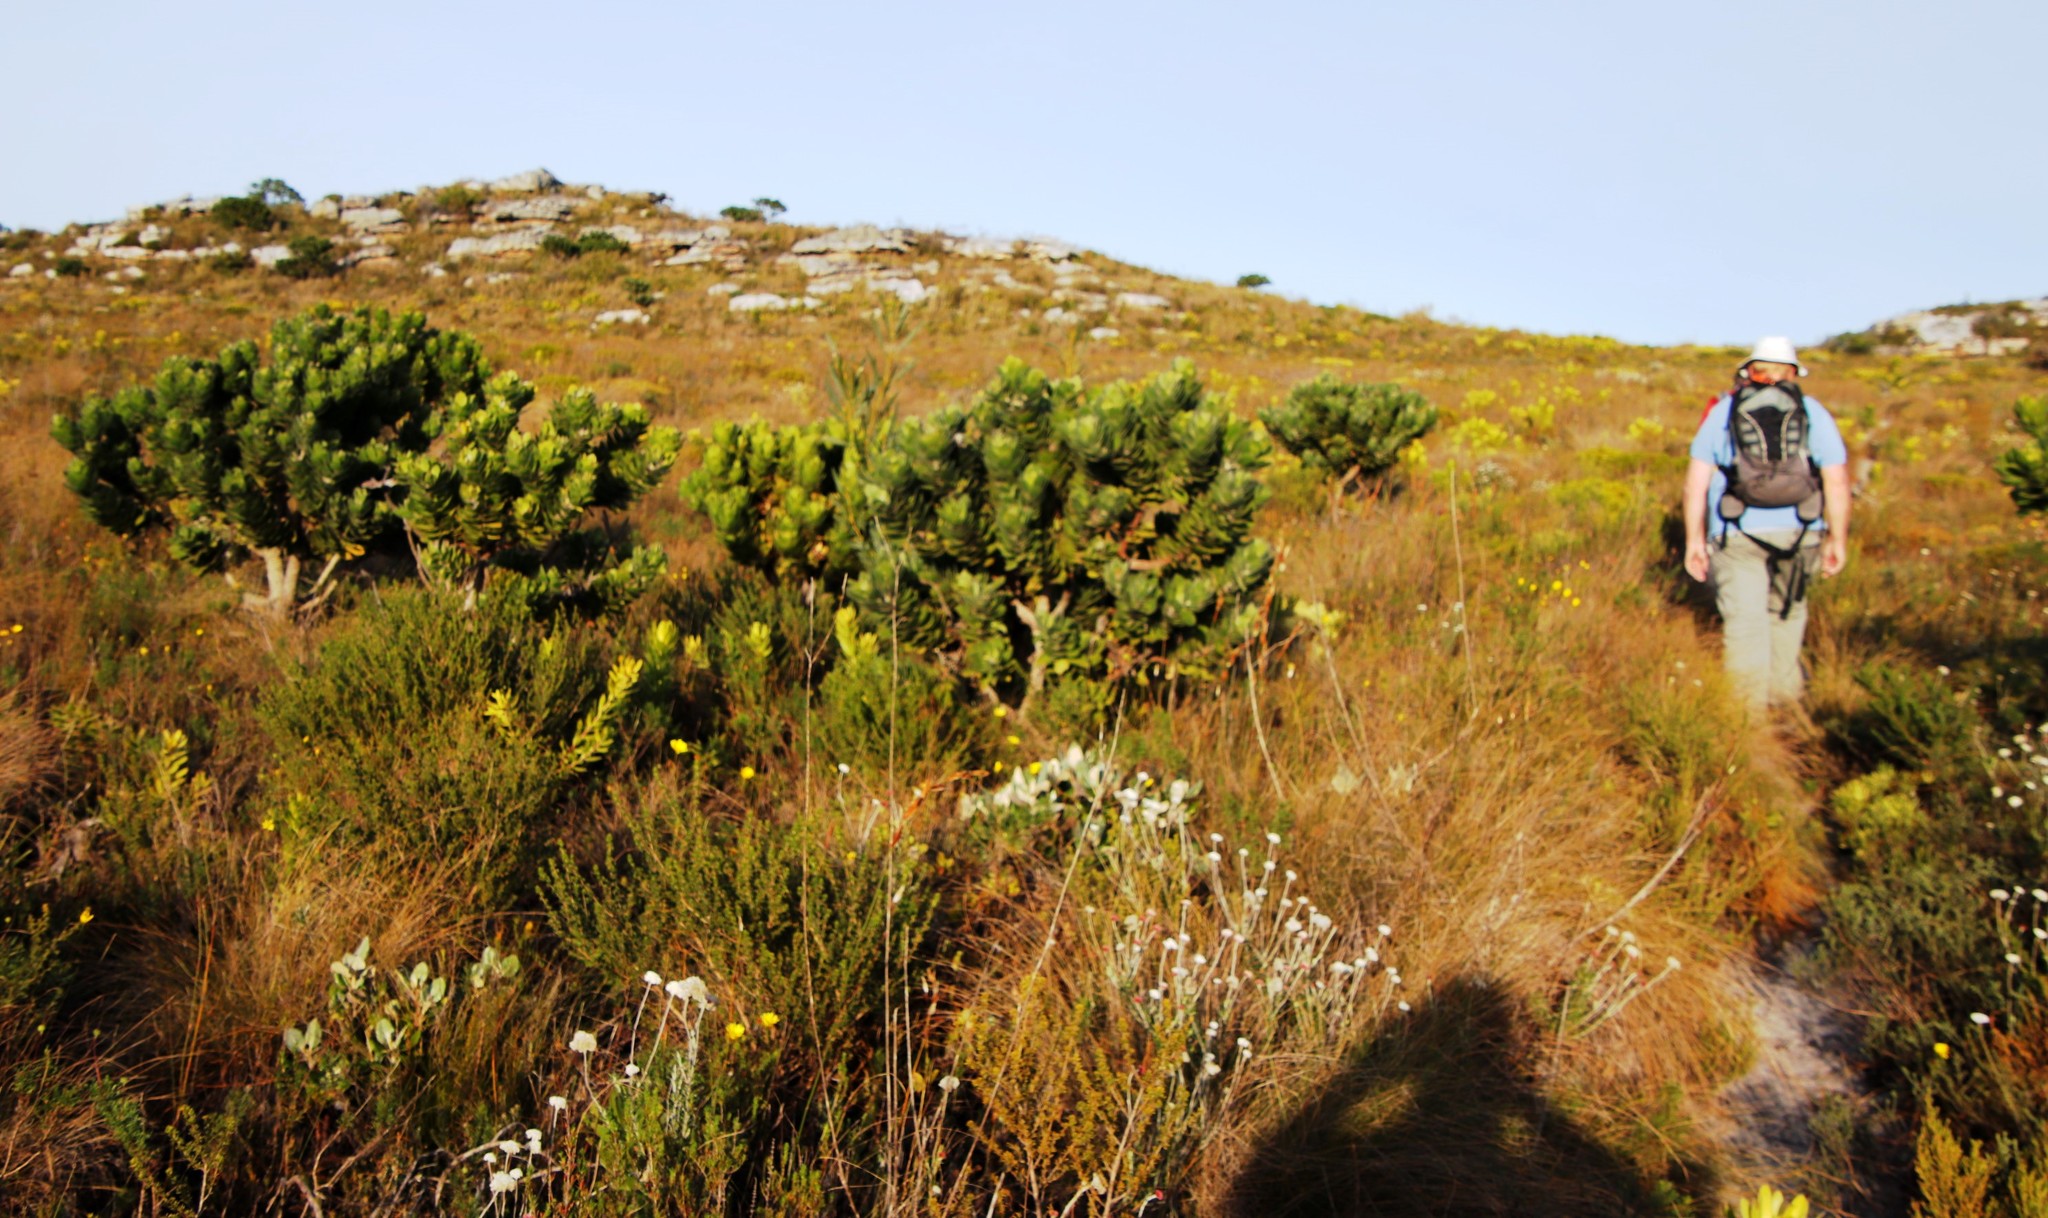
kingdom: Plantae
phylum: Tracheophyta
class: Magnoliopsida
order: Proteales
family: Proteaceae
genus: Leucospermum
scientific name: Leucospermum conocarpodendron
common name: Tree pincushion
